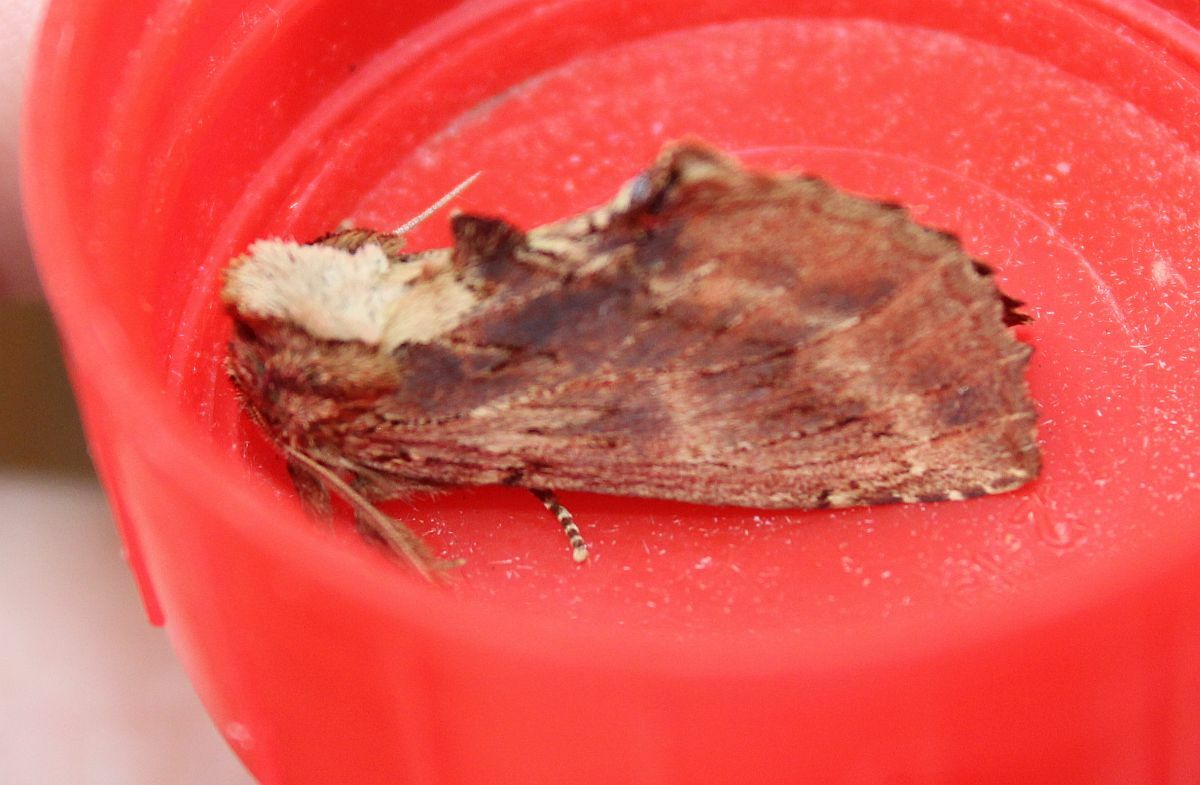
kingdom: Animalia
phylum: Arthropoda
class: Insecta
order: Lepidoptera
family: Notodontidae
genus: Ptilodon
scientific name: Ptilodon capucina
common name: Coxcomb prominent
